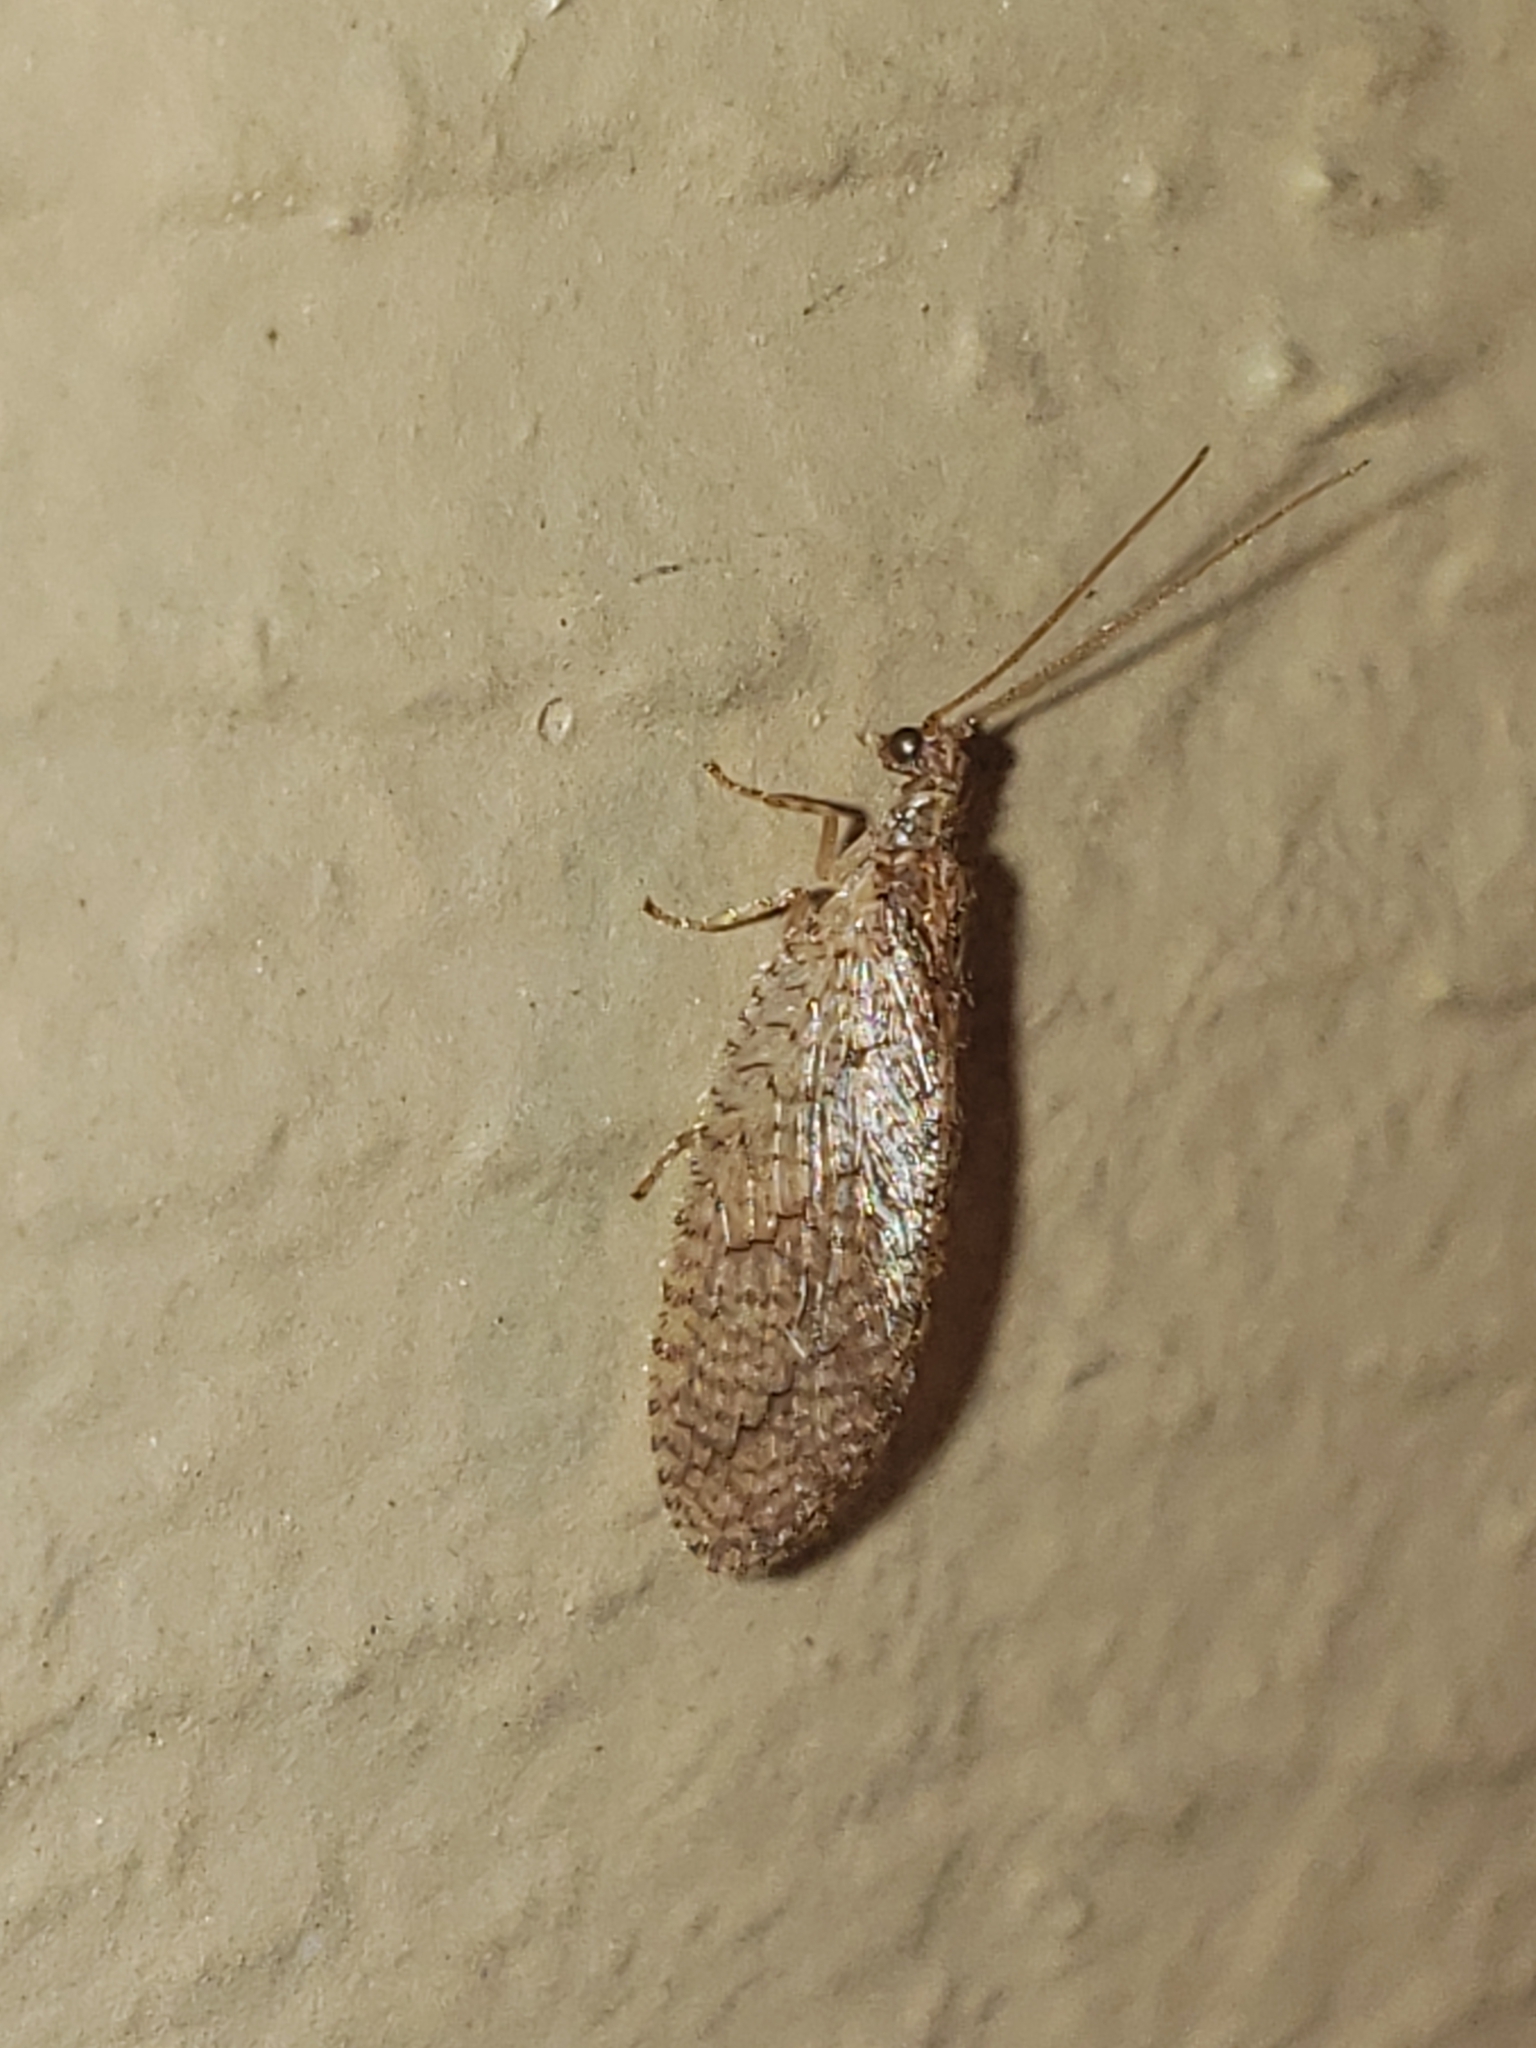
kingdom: Animalia
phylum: Arthropoda
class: Insecta
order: Neuroptera
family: Hemerobiidae
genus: Micromus
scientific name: Micromus posticus
